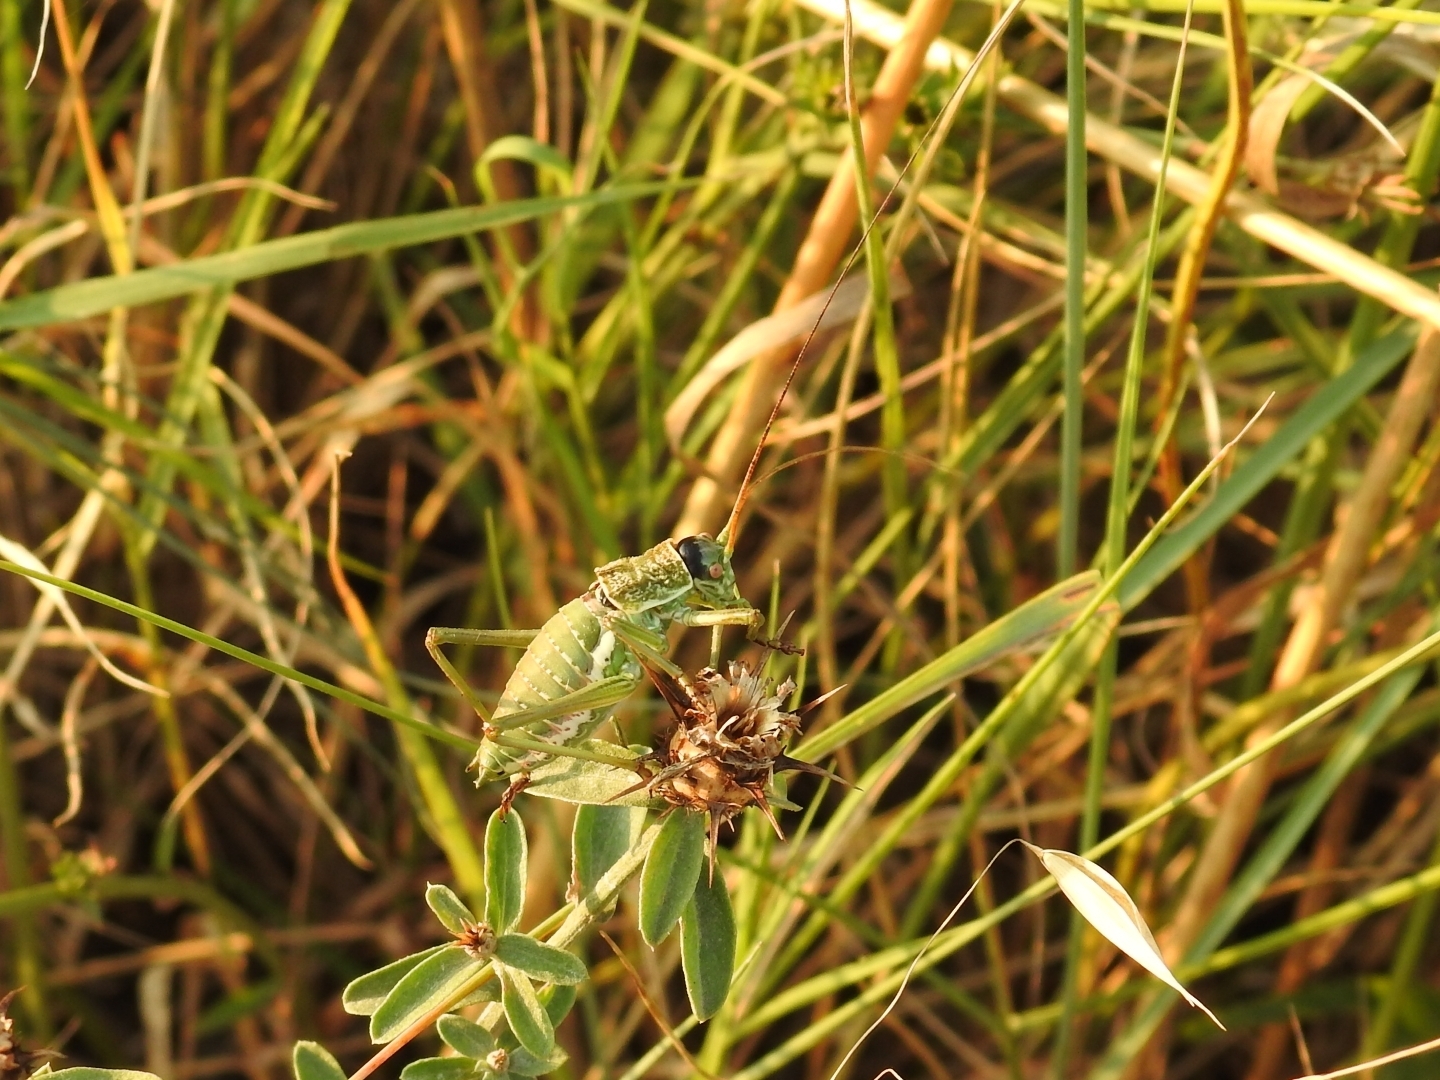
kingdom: Animalia
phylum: Arthropoda
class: Insecta
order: Orthoptera
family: Tettigoniidae
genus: Uromenus
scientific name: Uromenus elegans
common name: Elegant saddle bush-cricket
